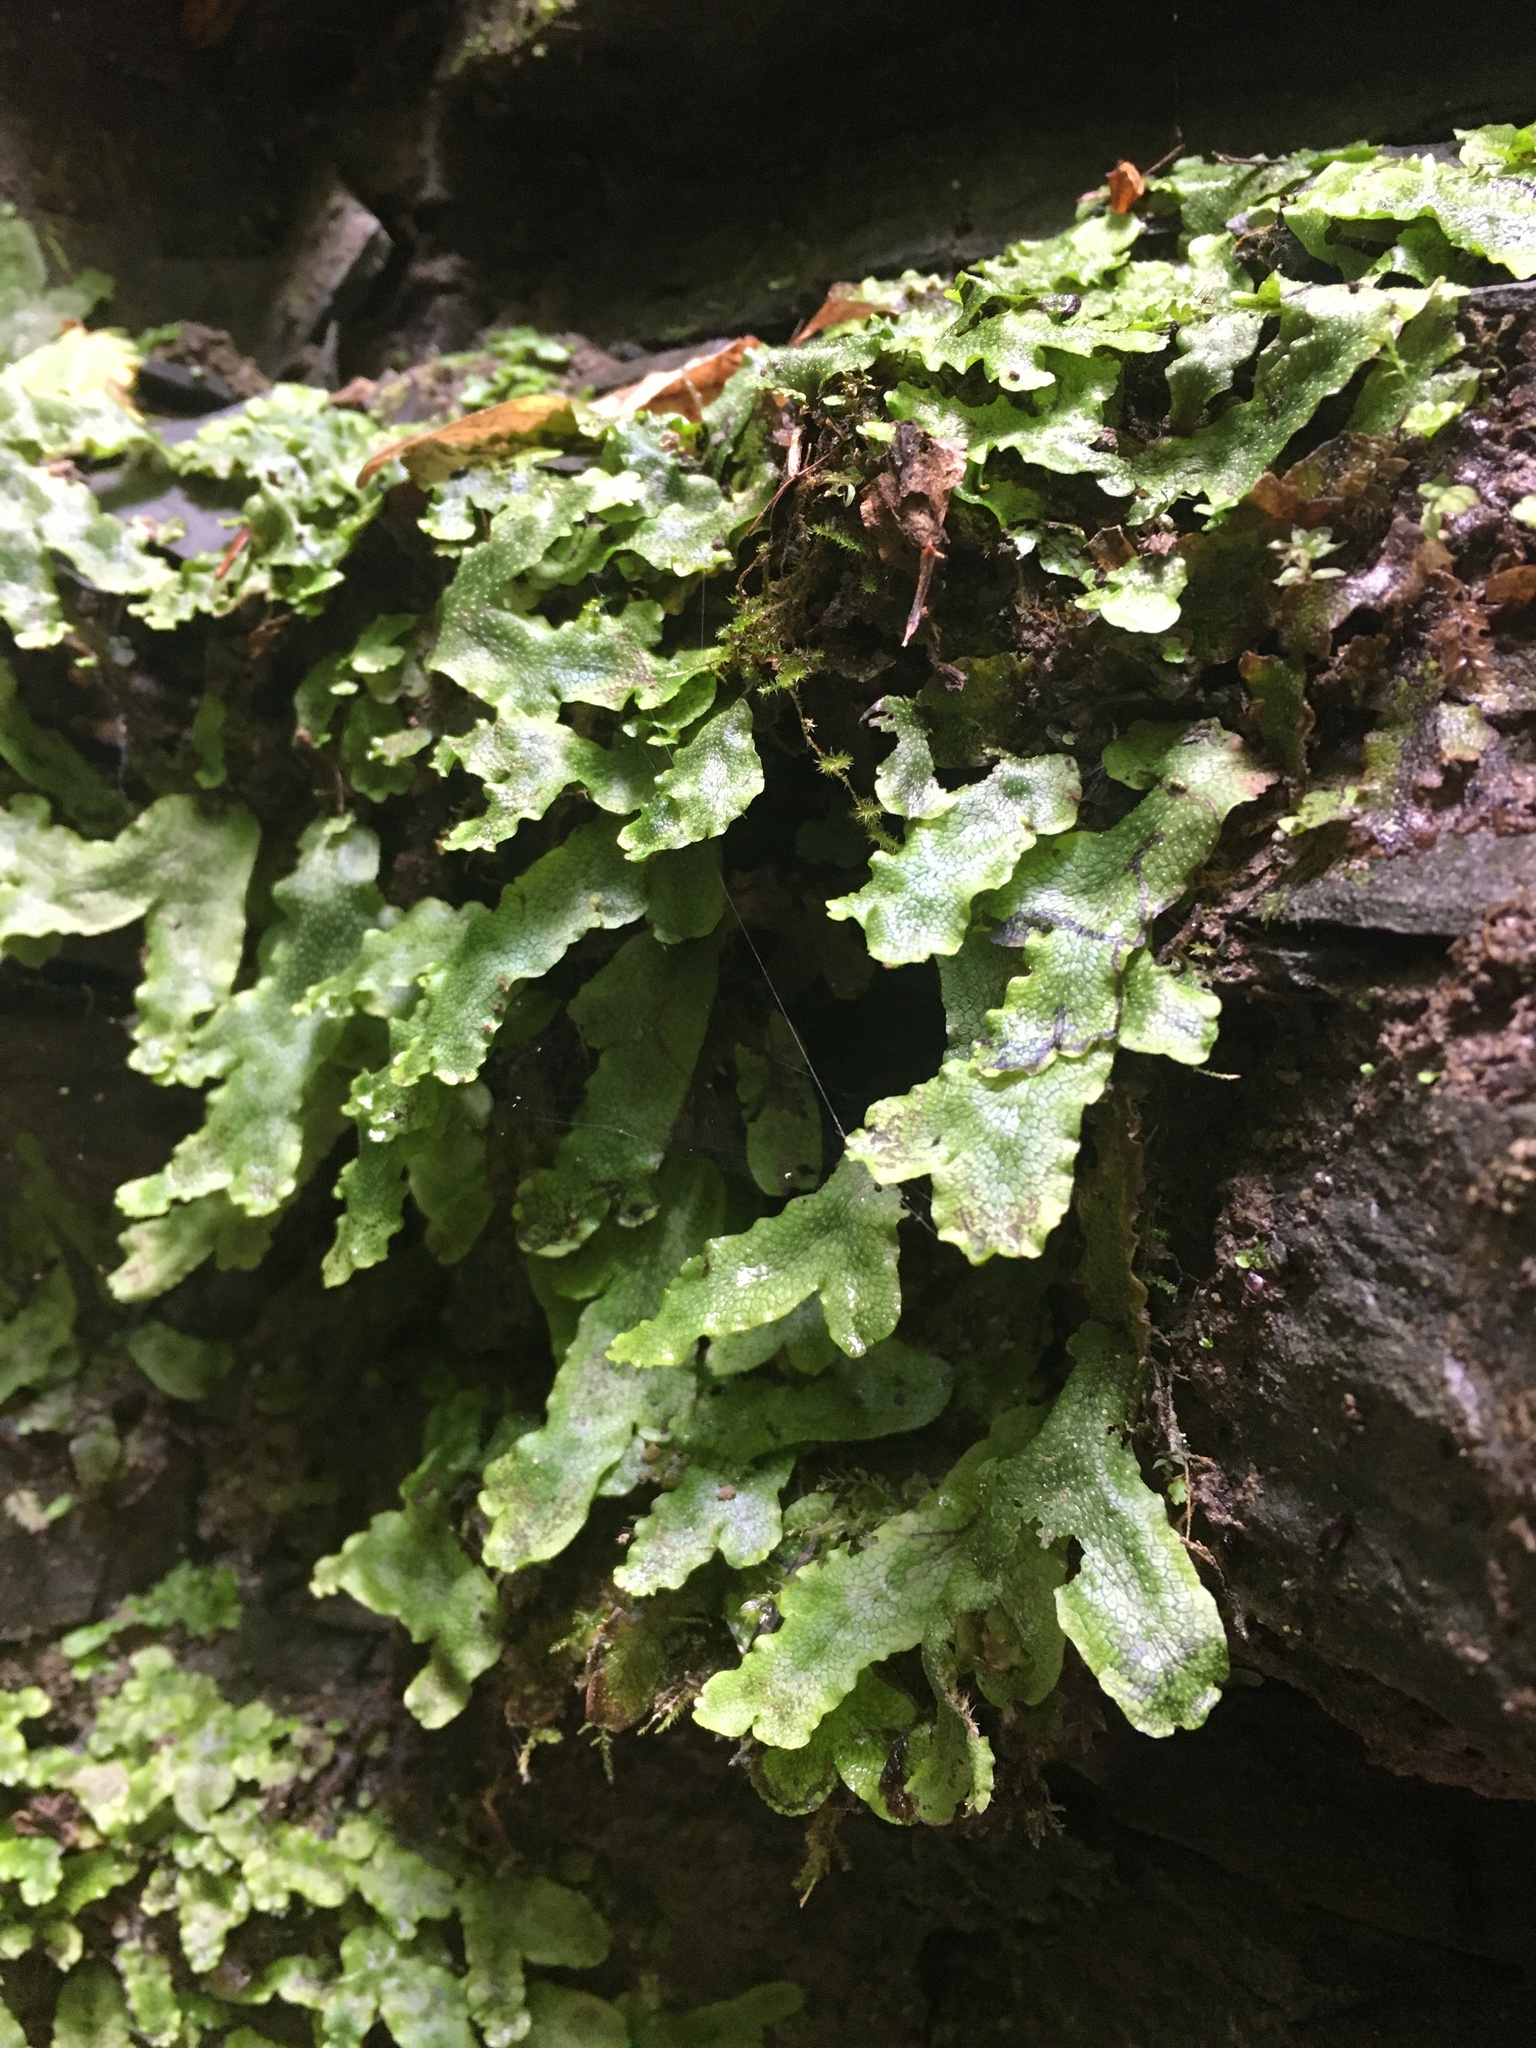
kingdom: Plantae
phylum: Marchantiophyta
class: Marchantiopsida
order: Marchantiales
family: Conocephalaceae
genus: Conocephalum
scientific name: Conocephalum salebrosum
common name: Cat-tongue liverwort
